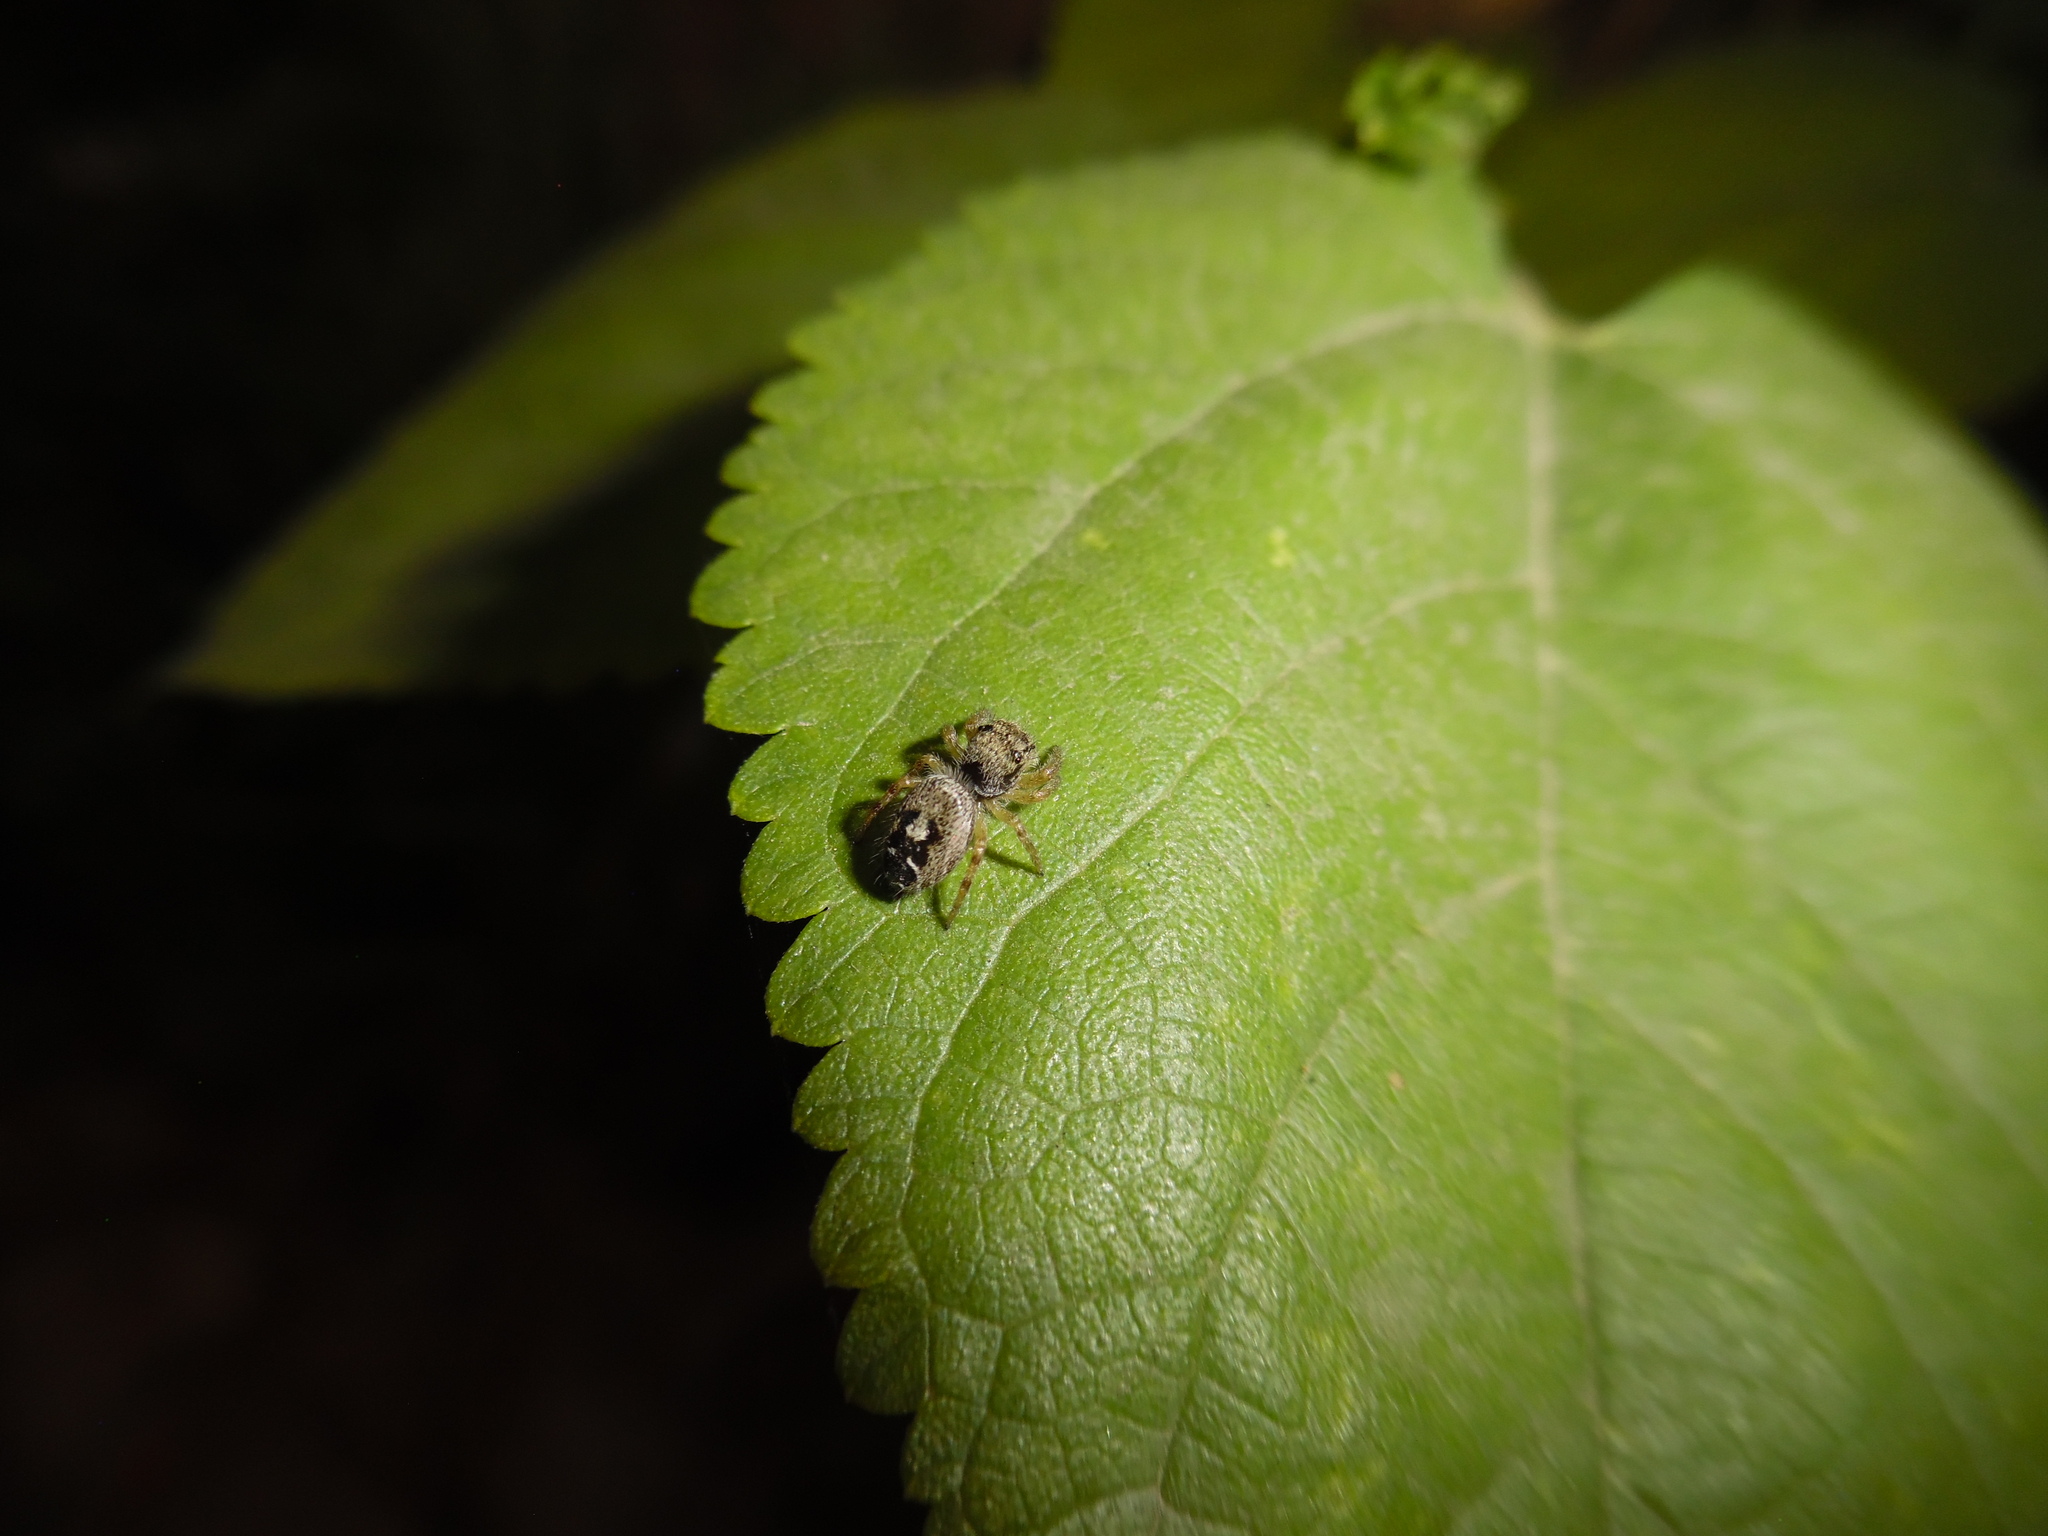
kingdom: Animalia
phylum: Arthropoda
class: Arachnida
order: Araneae
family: Salticidae
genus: Phidippus
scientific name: Phidippus cruentus
